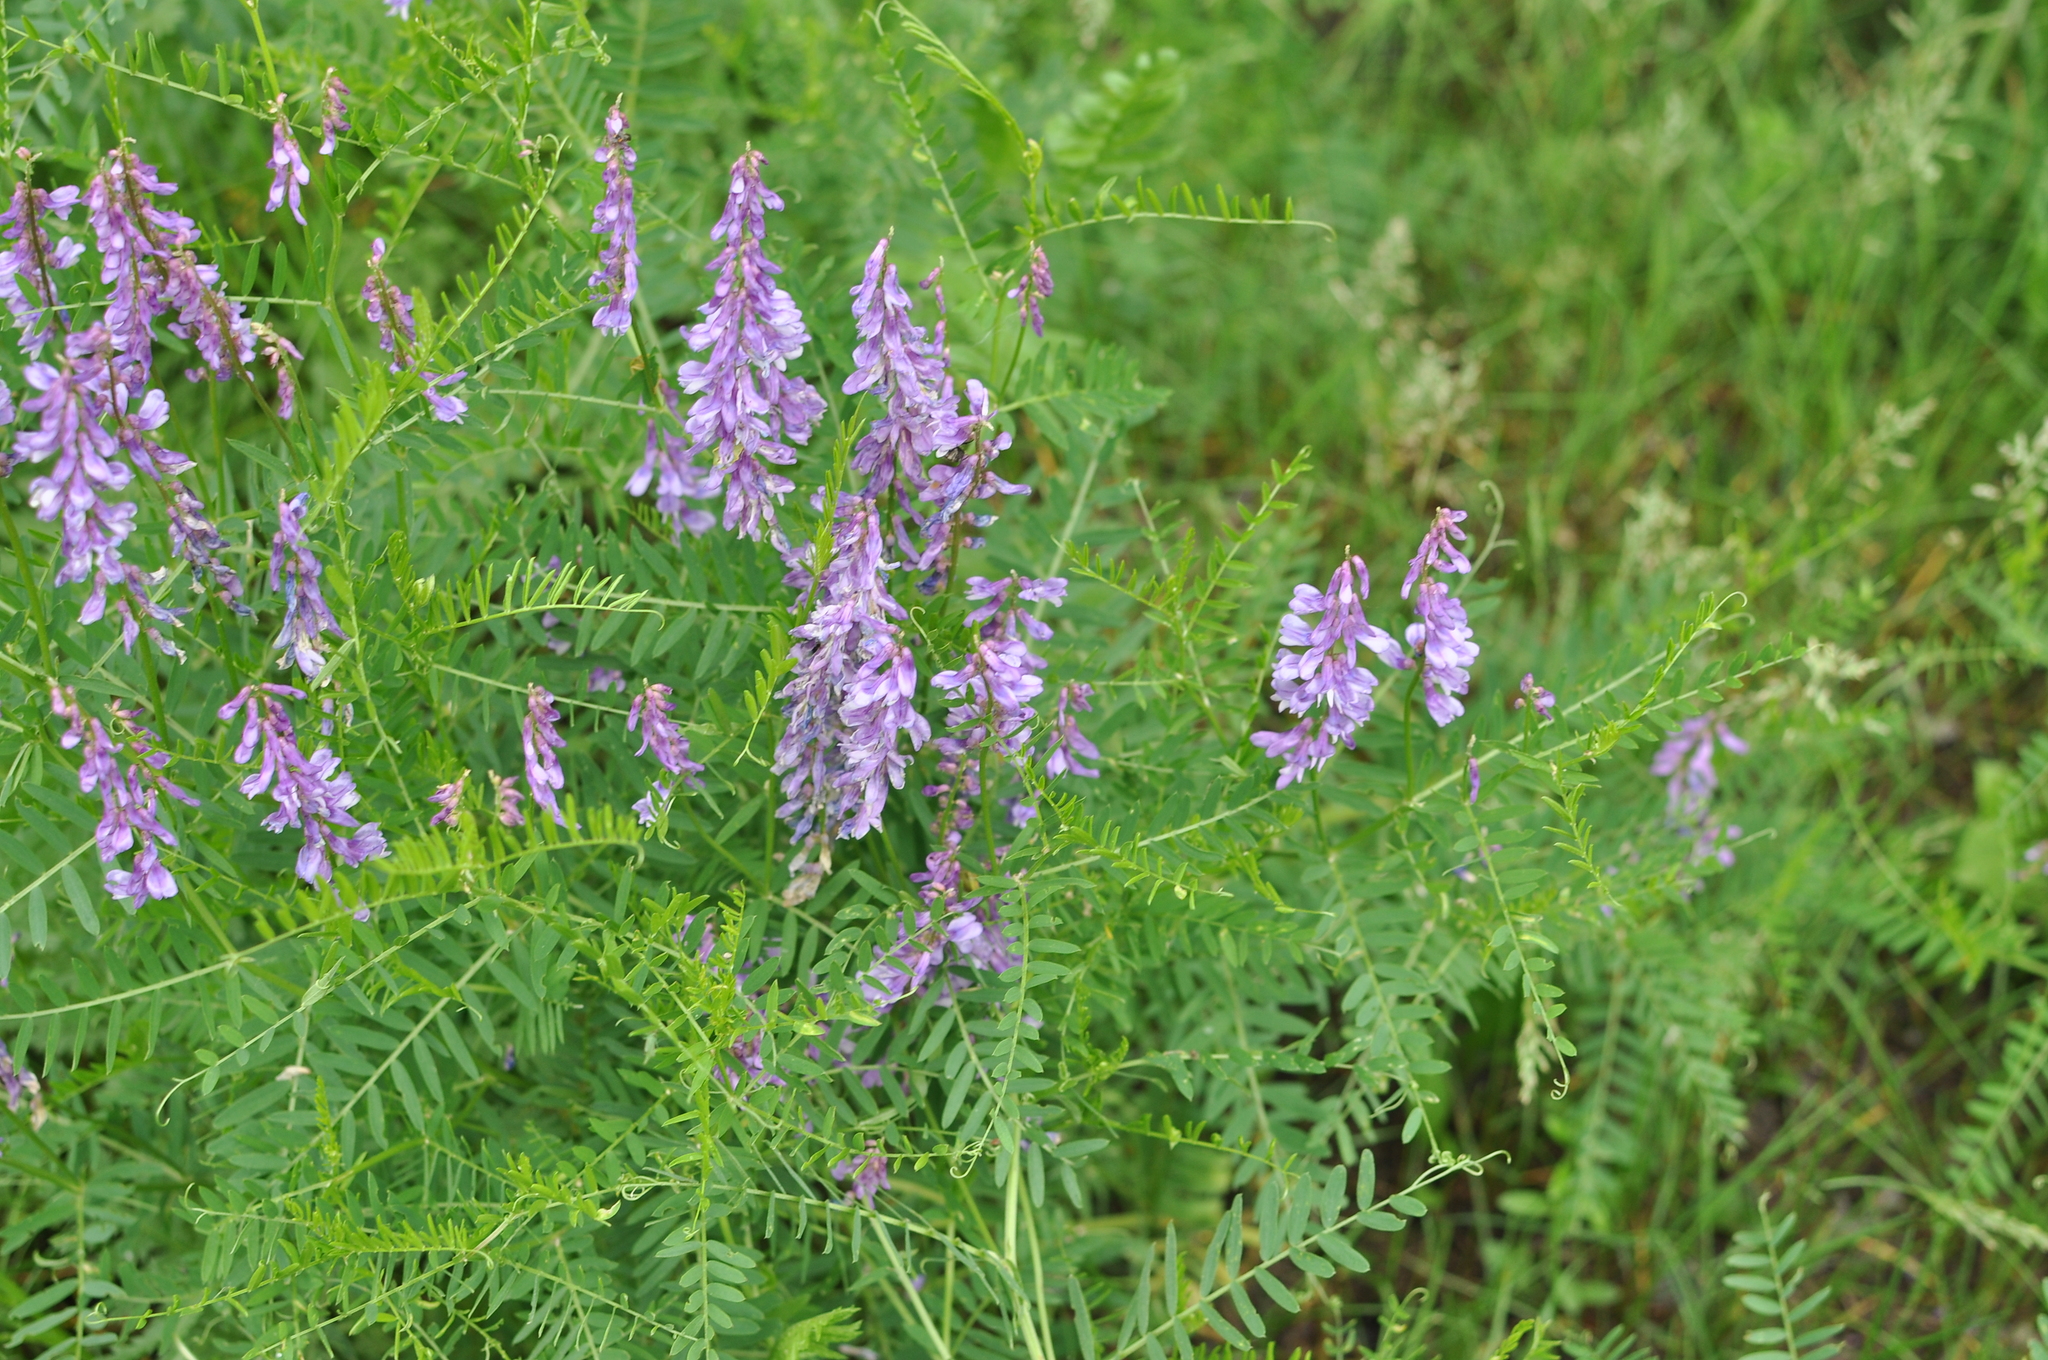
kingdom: Plantae
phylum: Tracheophyta
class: Magnoliopsida
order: Fabales
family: Fabaceae
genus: Vicia
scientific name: Vicia tenuifolia
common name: Fine-leaved vetch
